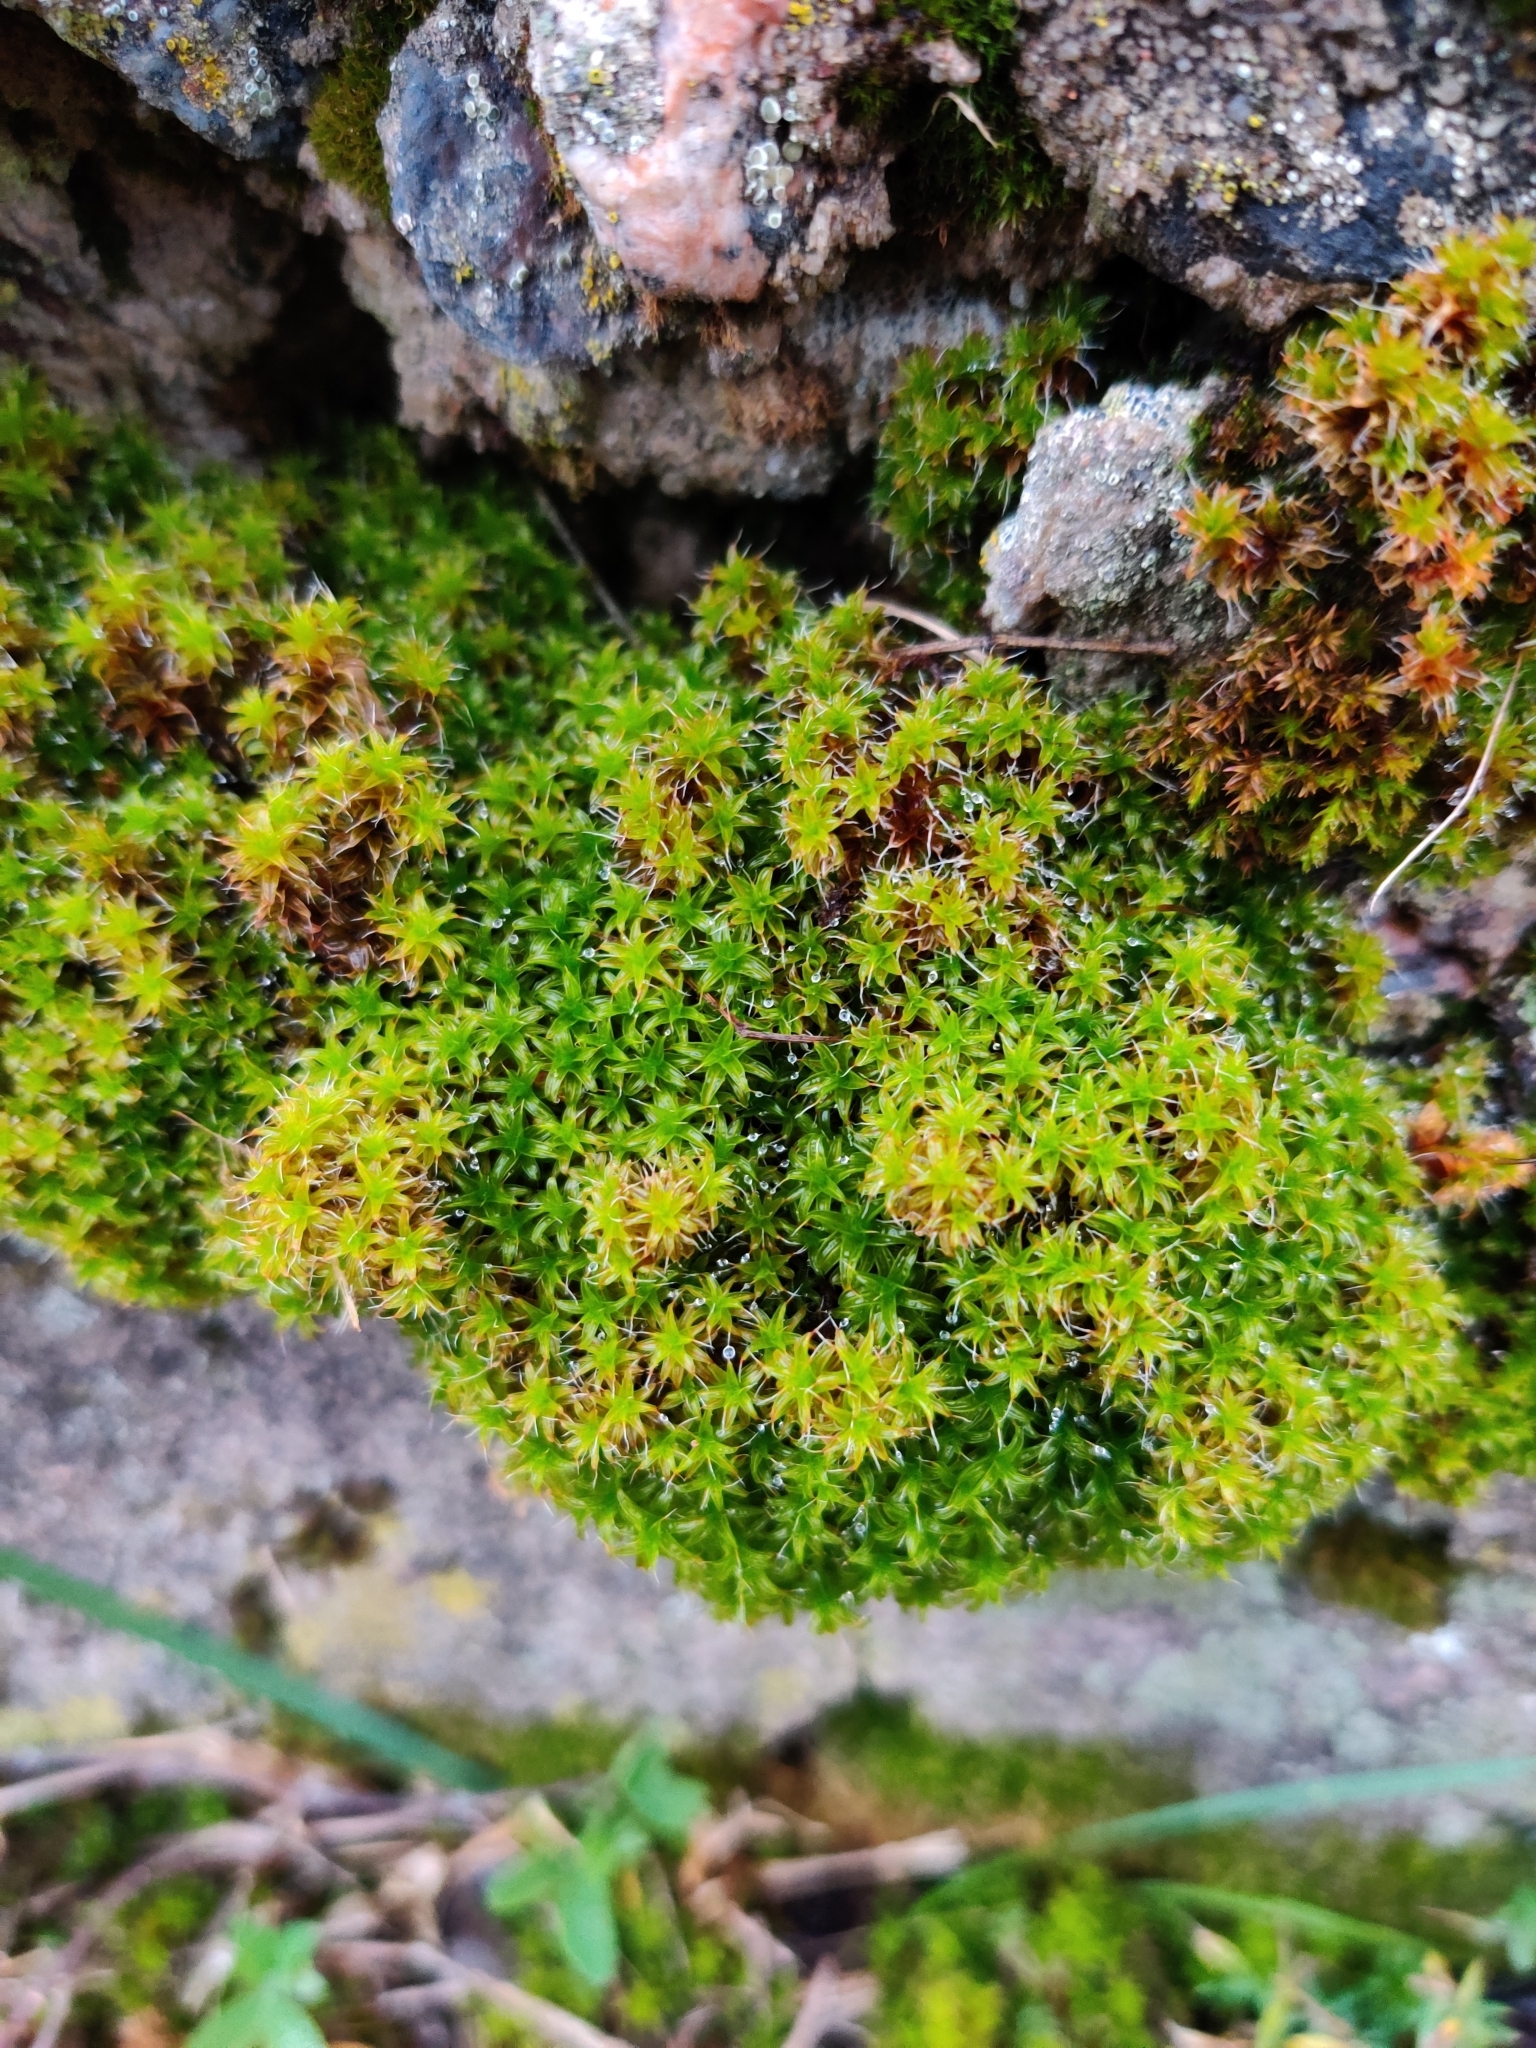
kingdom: Plantae
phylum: Bryophyta
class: Bryopsida
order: Pottiales
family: Pottiaceae
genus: Syntrichia
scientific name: Syntrichia ruralis
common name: Sidewalk screw moss
